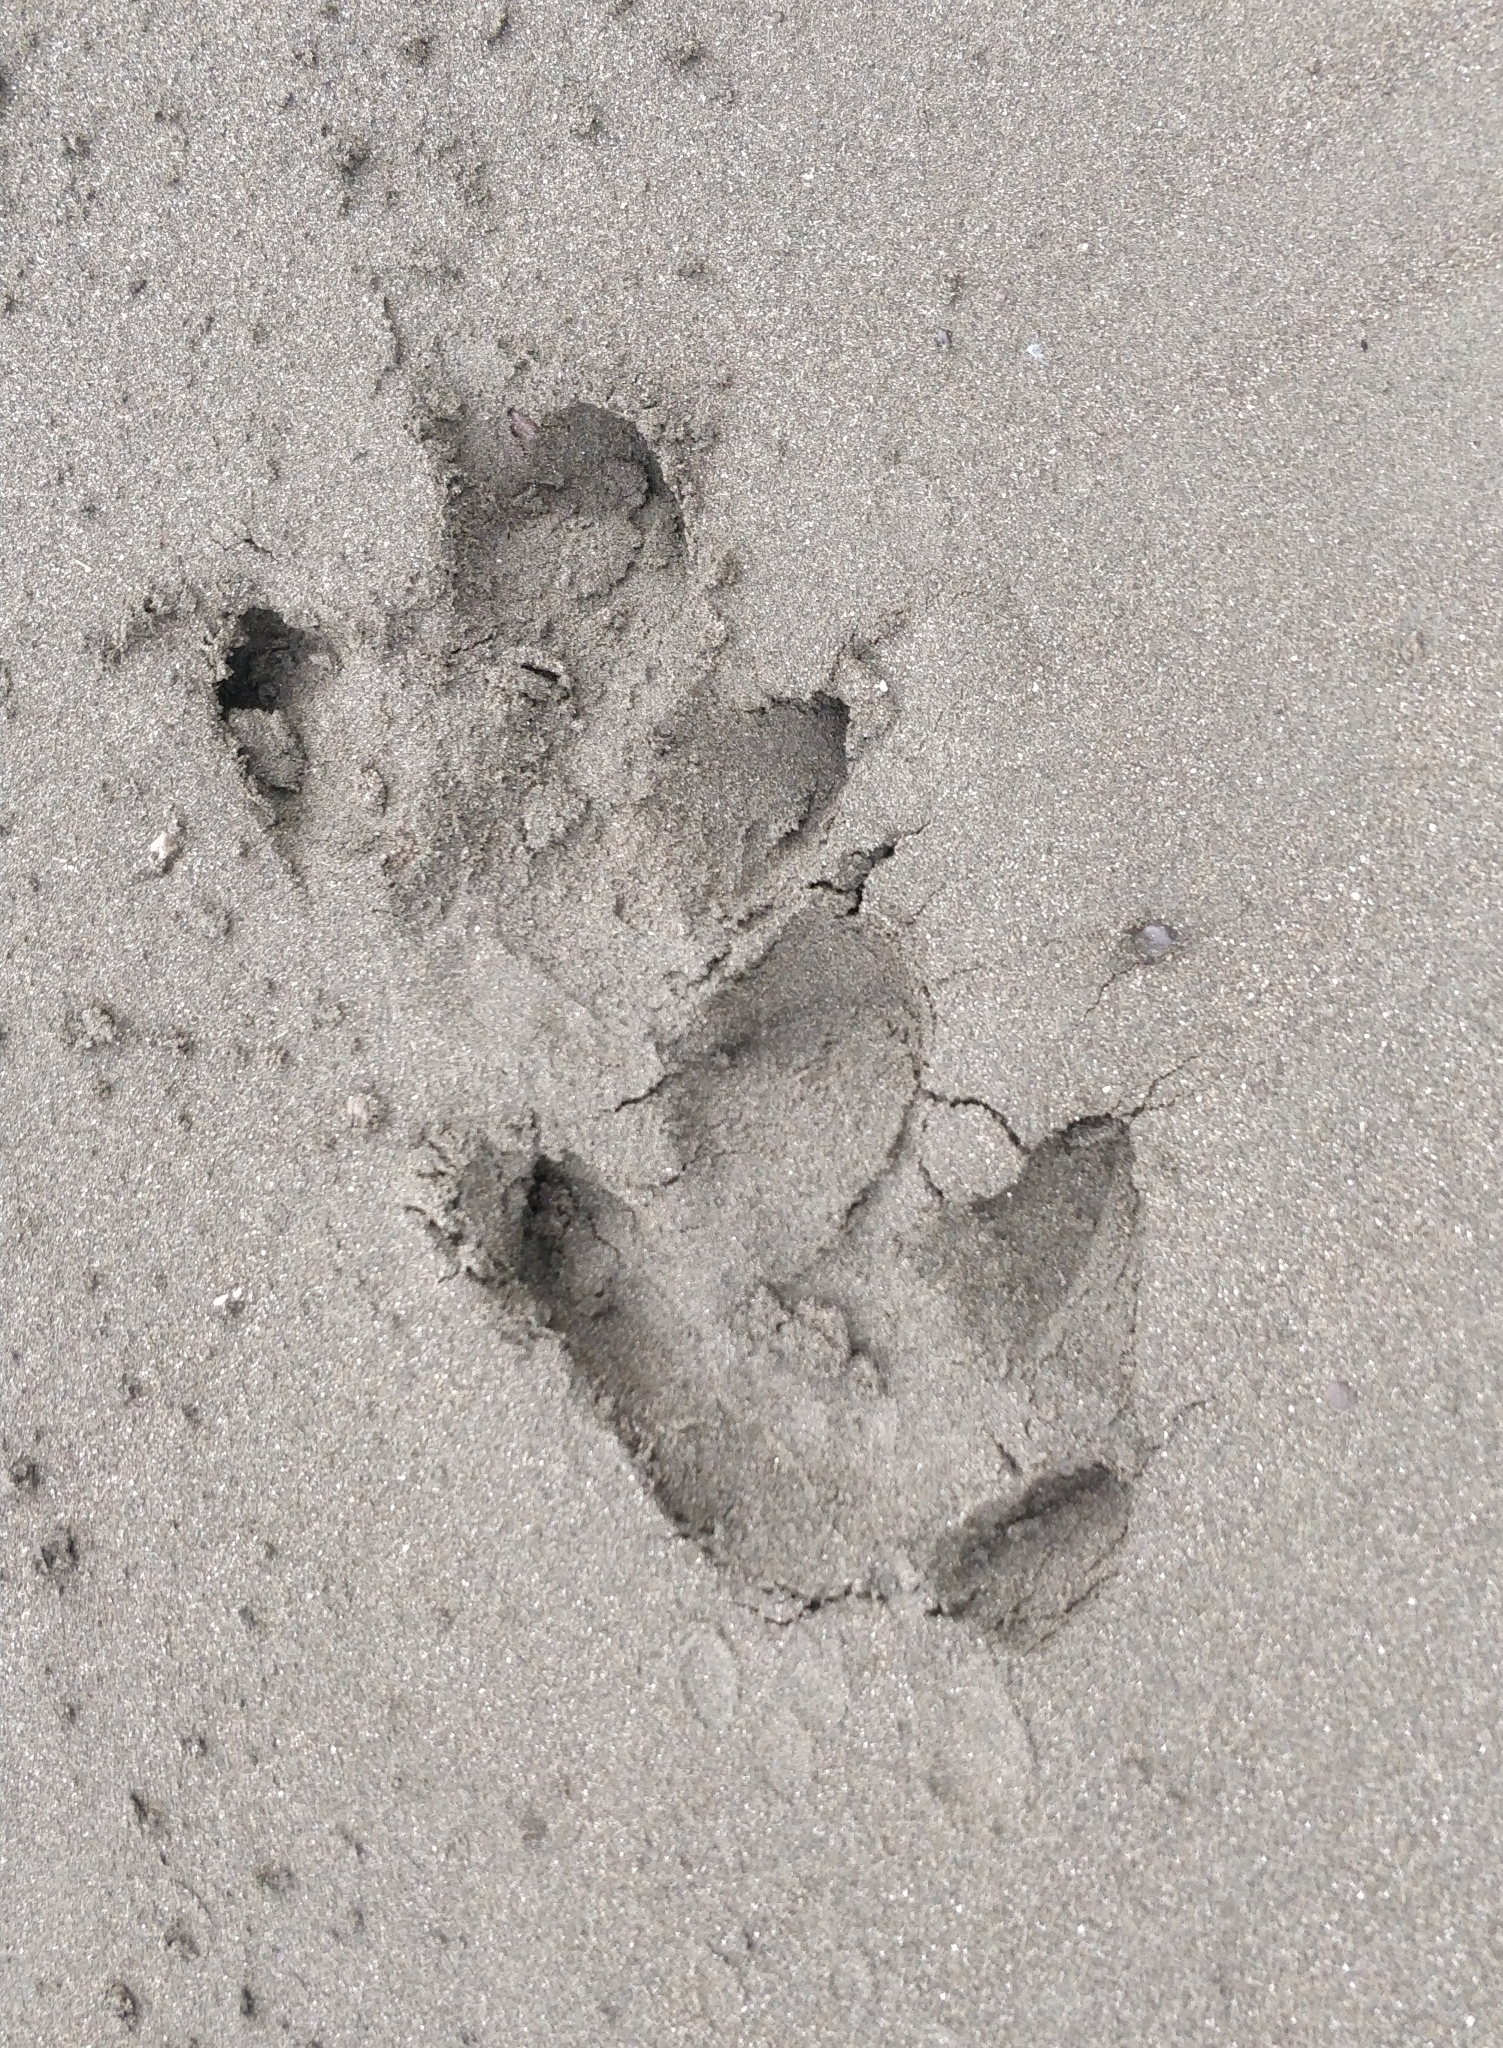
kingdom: Animalia
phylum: Chordata
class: Mammalia
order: Perissodactyla
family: Tapiridae
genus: Tapirella
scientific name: Tapirella bairdii
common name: Baird's tapir
